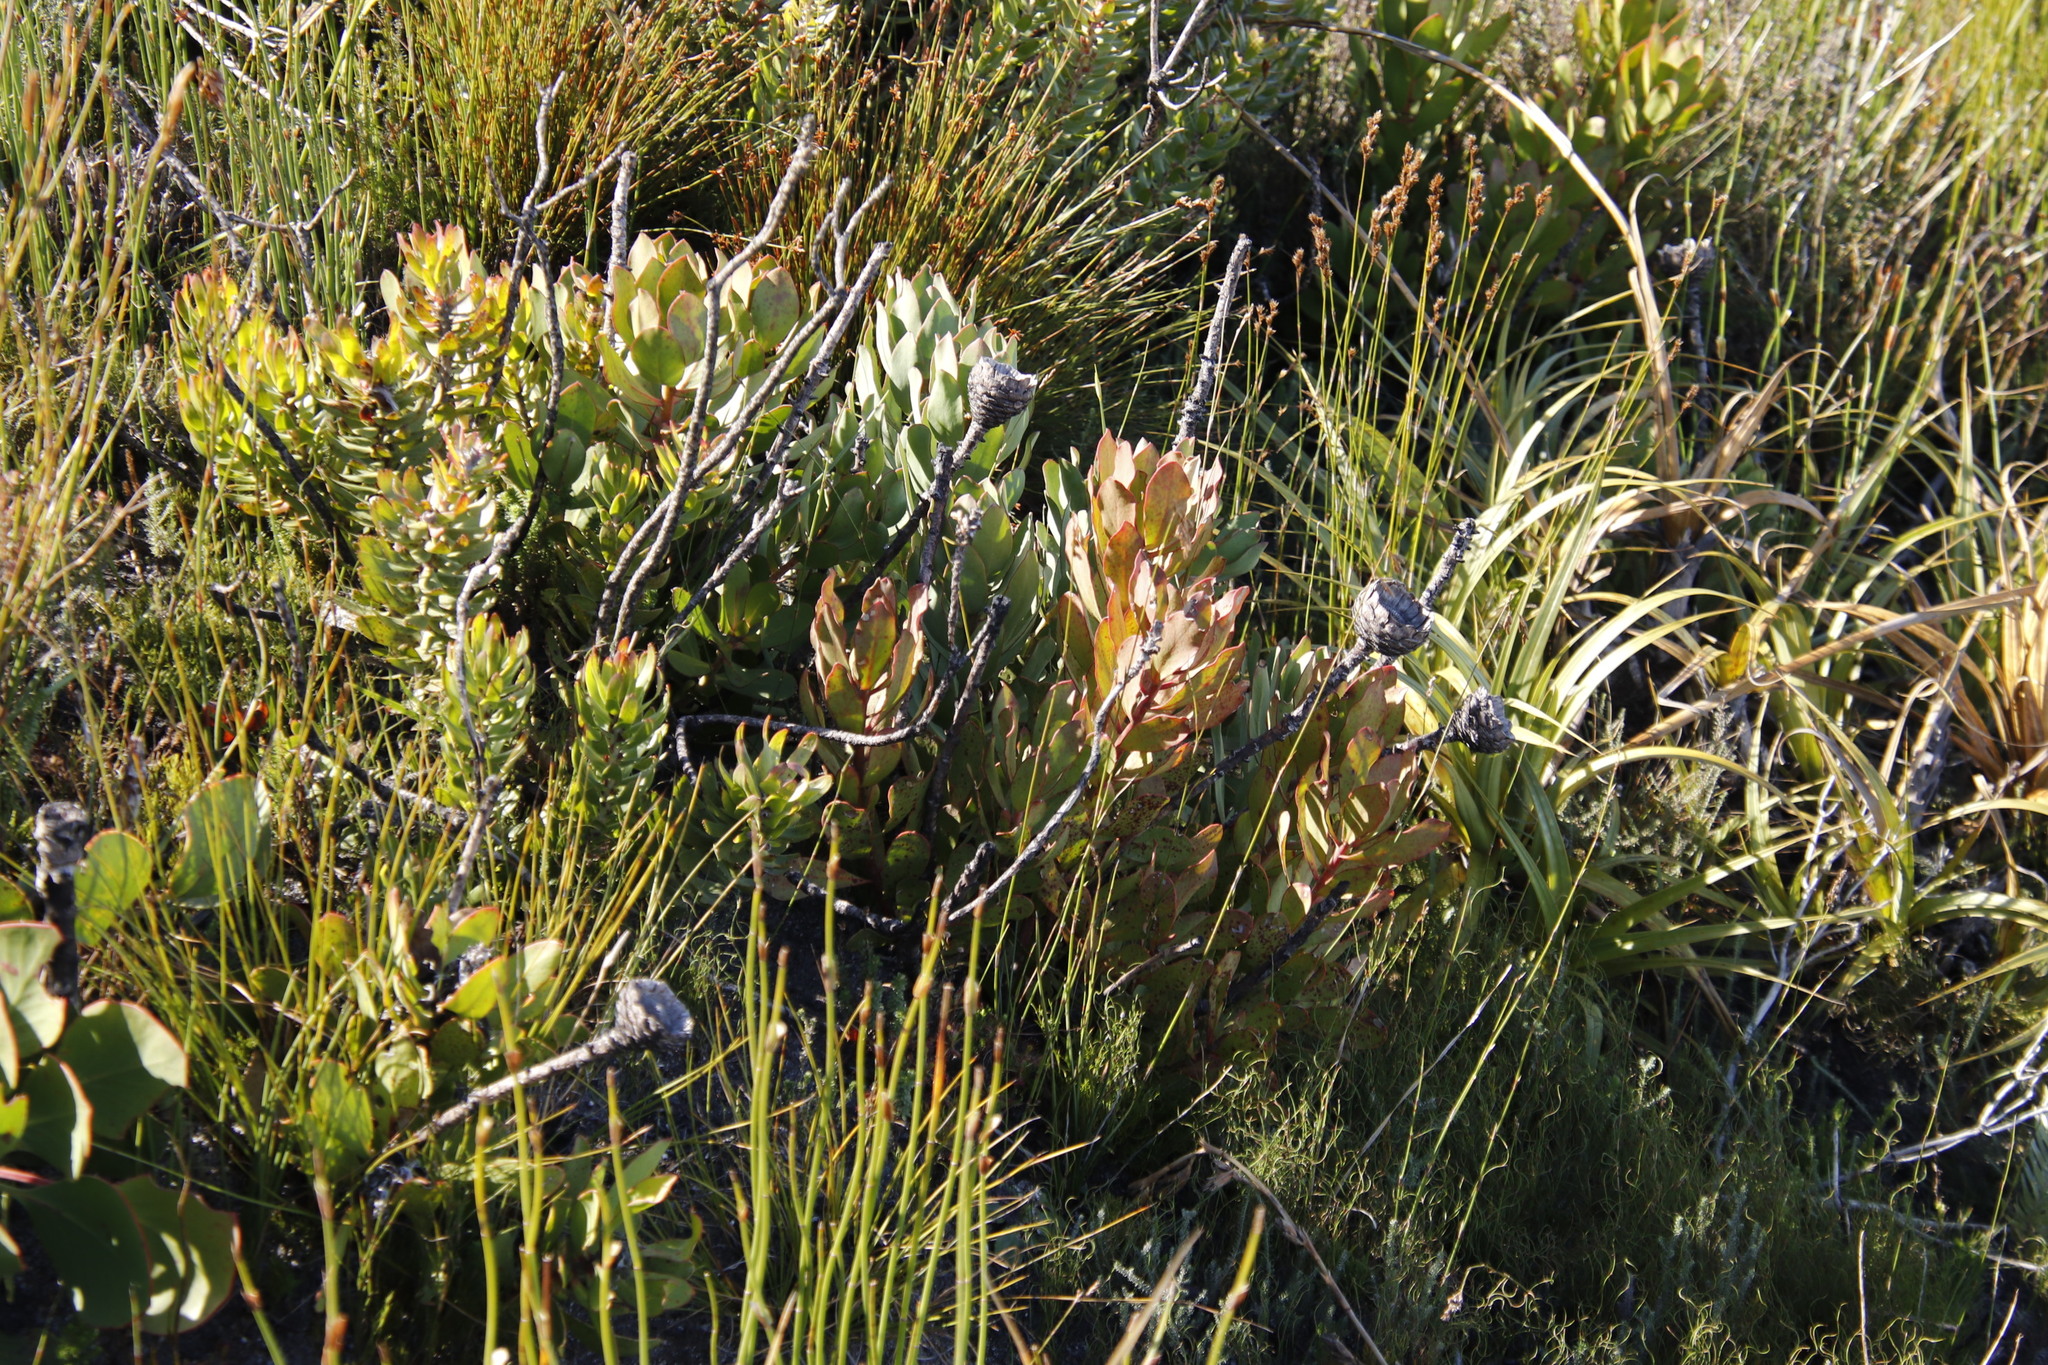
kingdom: Plantae
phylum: Tracheophyta
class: Magnoliopsida
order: Proteales
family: Proteaceae
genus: Protea
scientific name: Protea speciosa
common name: Brown-beard sugarbush
